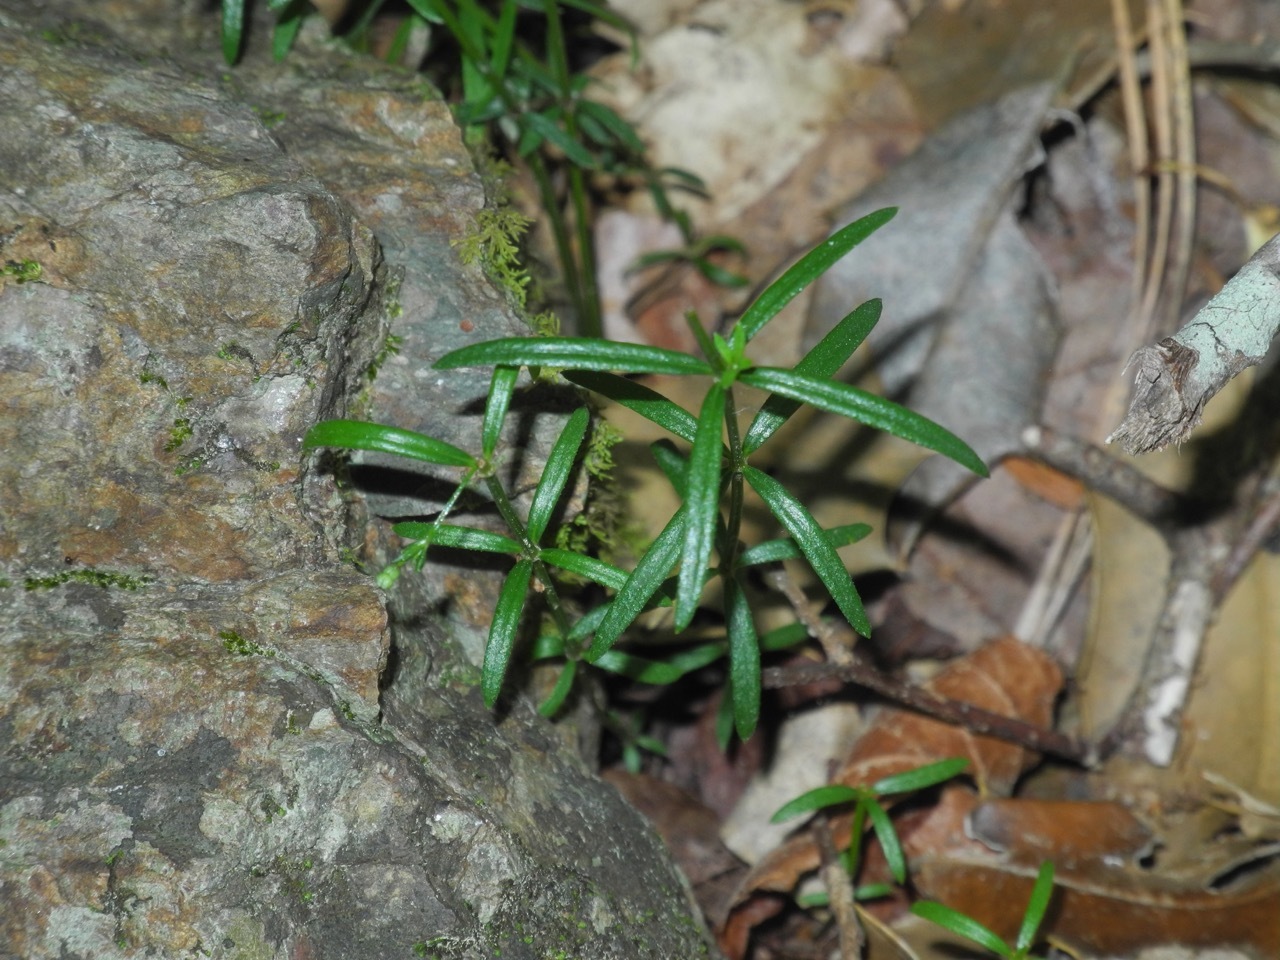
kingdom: Plantae
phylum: Tracheophyta
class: Magnoliopsida
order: Gentianales
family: Rubiaceae
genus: Galium
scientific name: Galium uniflorum
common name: One-flower bedstraw
